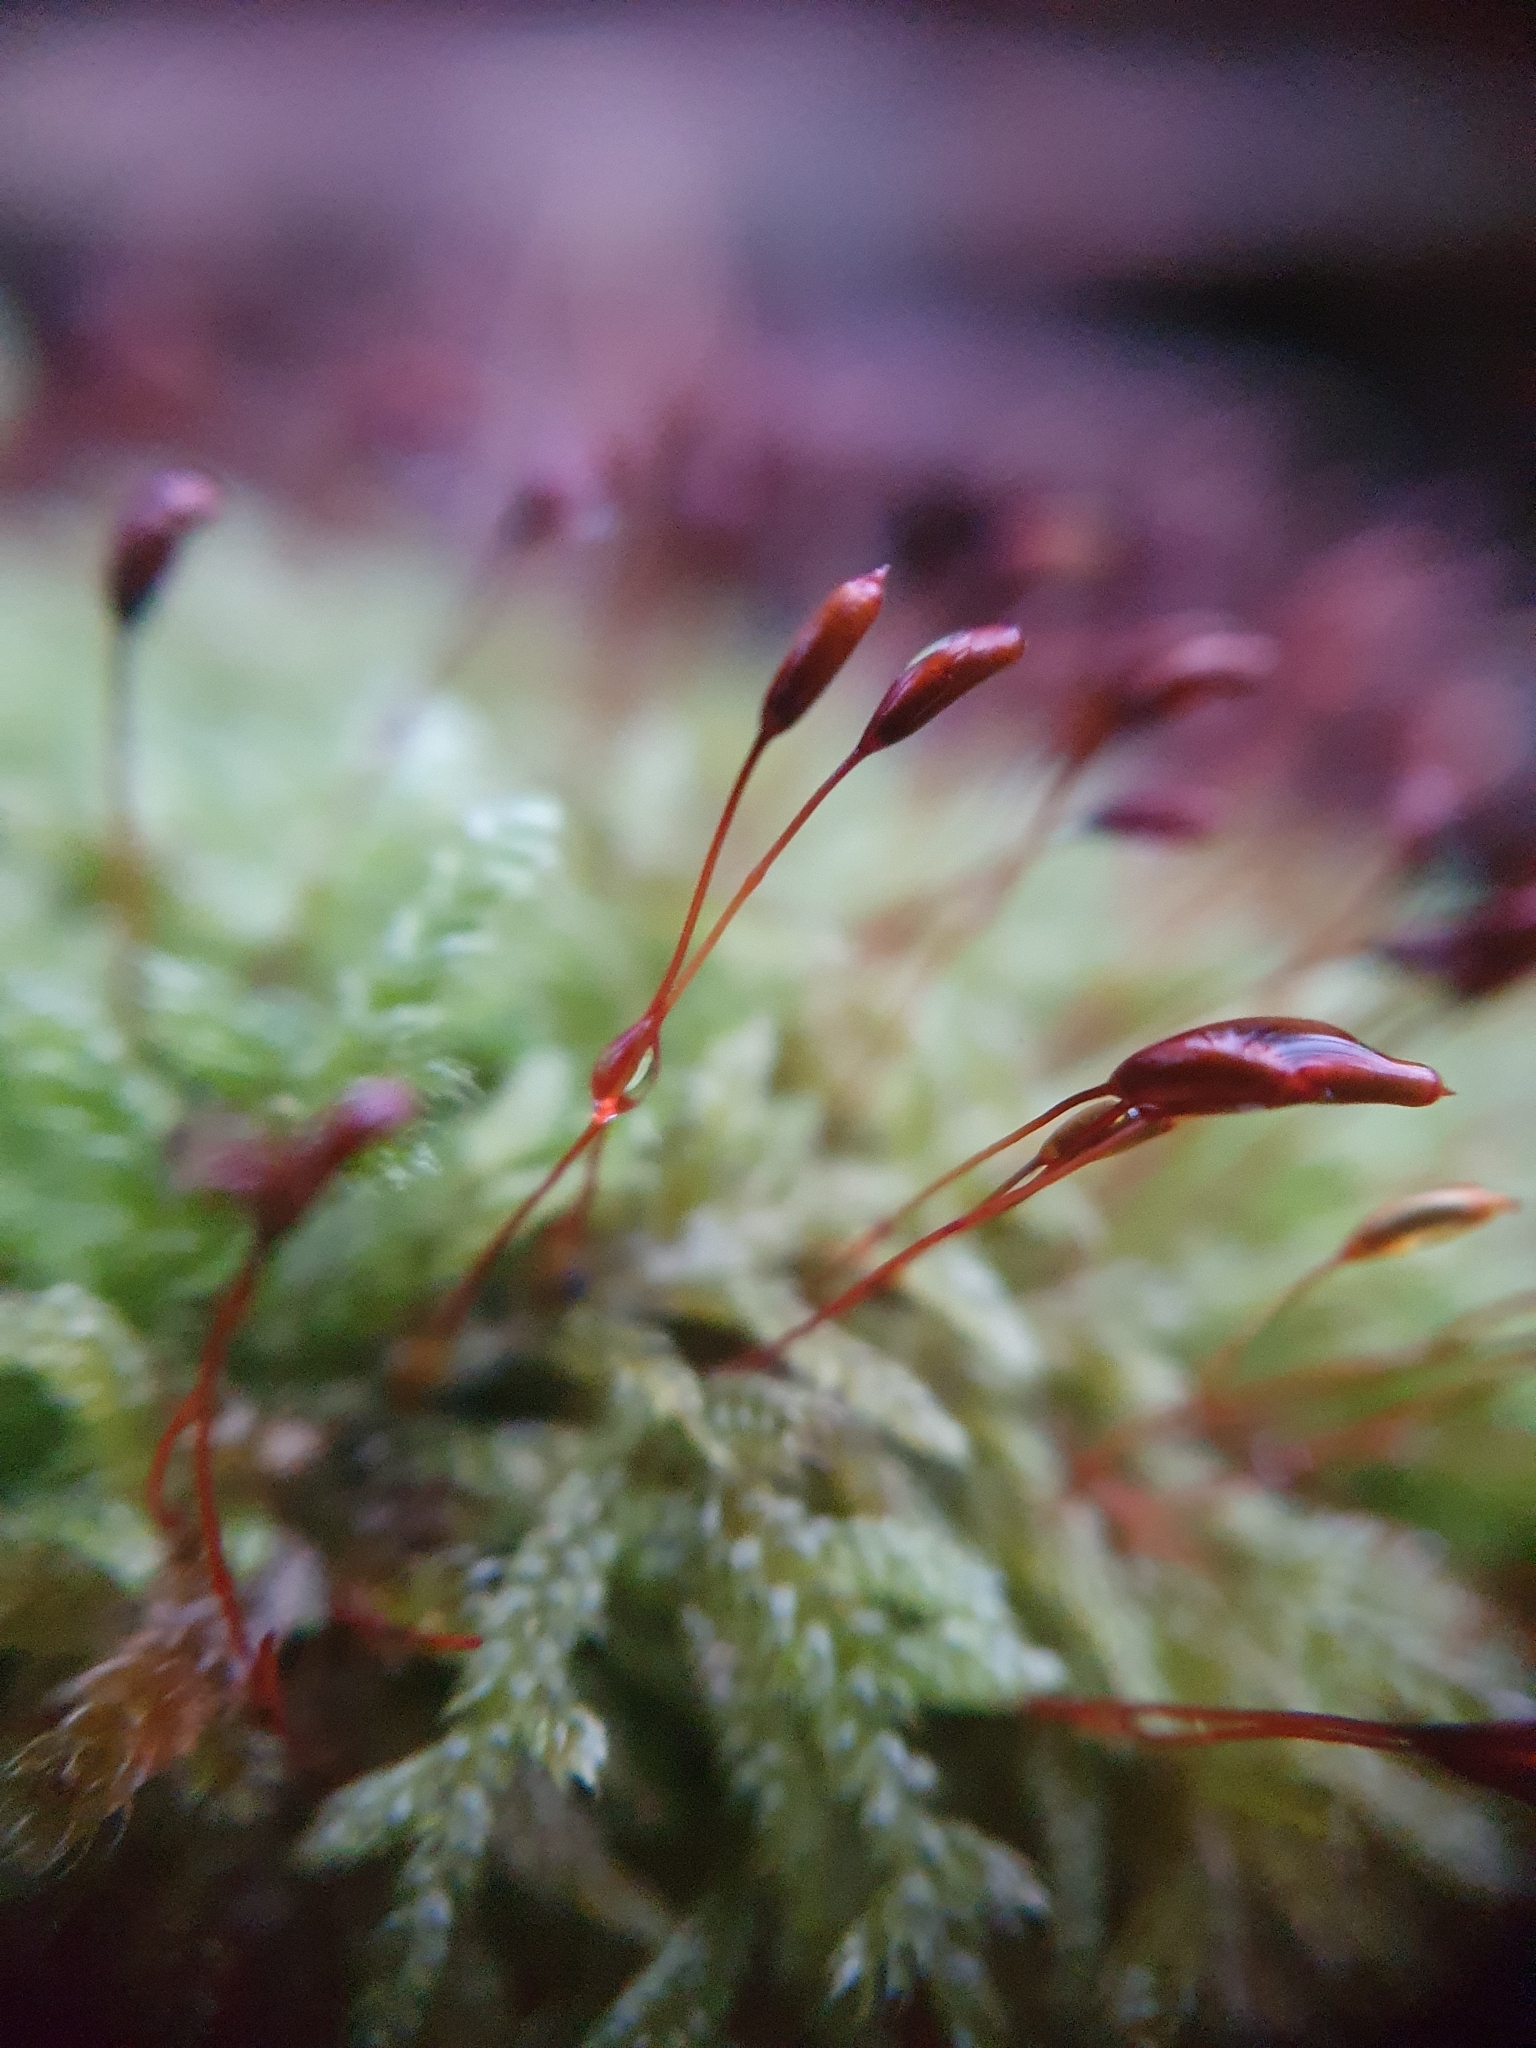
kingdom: Plantae
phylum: Bryophyta
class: Bryopsida
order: Hypnales
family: Hypnaceae
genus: Hypnum
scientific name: Hypnum cupressiforme
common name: Cypress-leaved plait-moss
